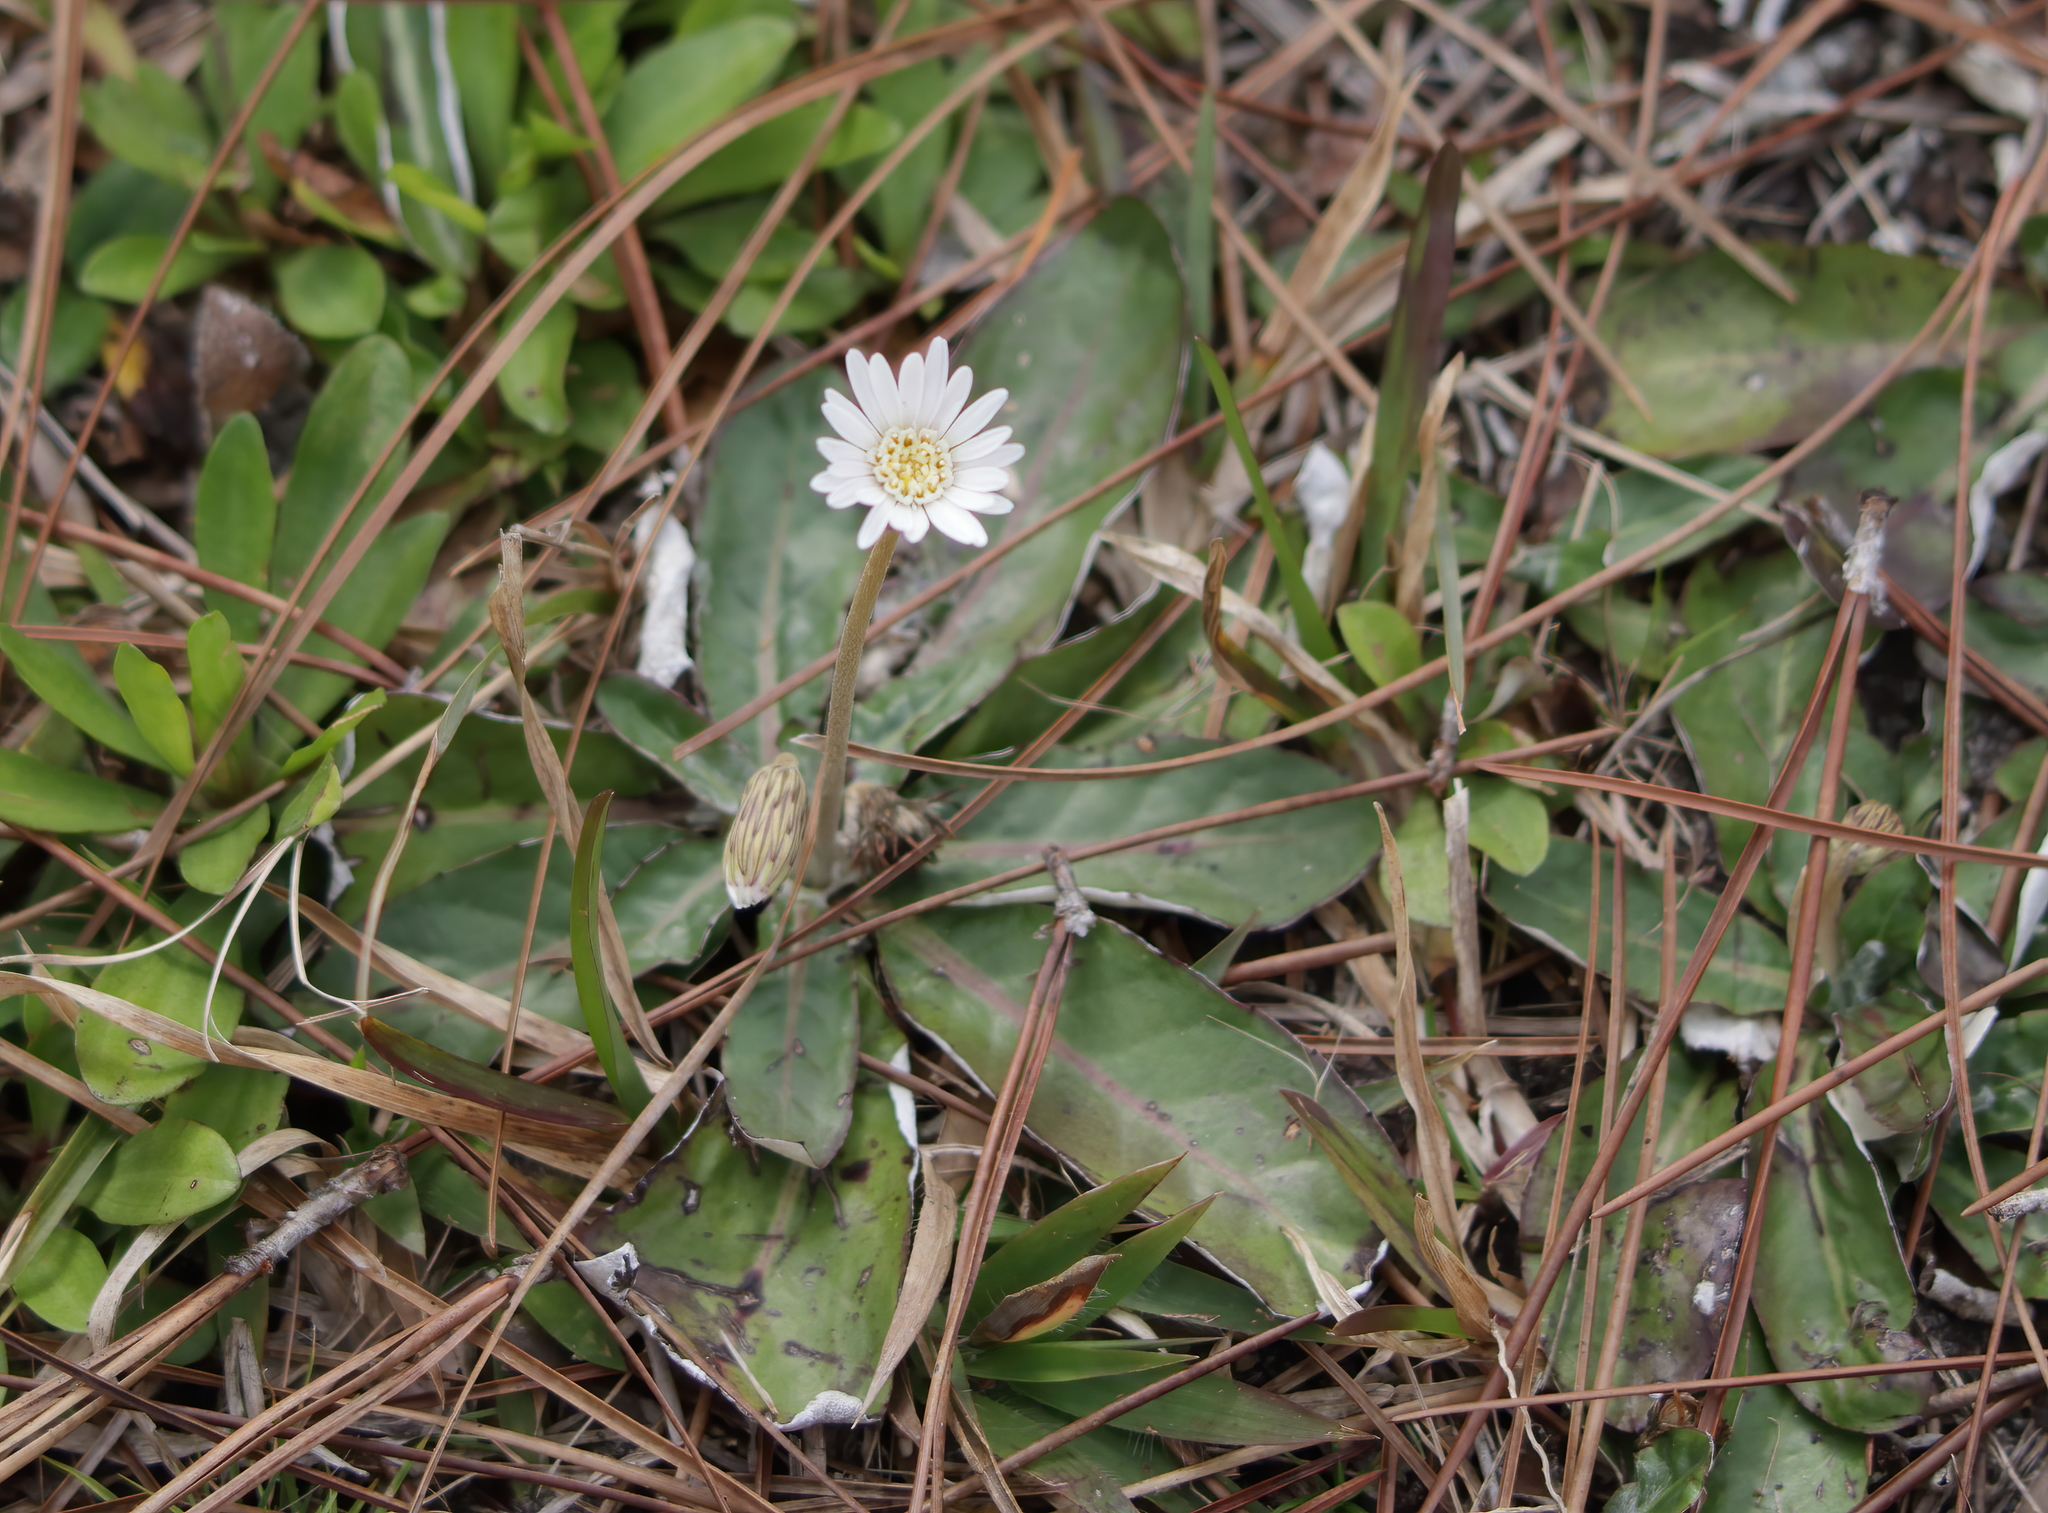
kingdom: Plantae
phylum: Tracheophyta
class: Magnoliopsida
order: Asterales
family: Asteraceae
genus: Chaptalia
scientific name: Chaptalia tomentosa
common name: Woolly sunbonnet
